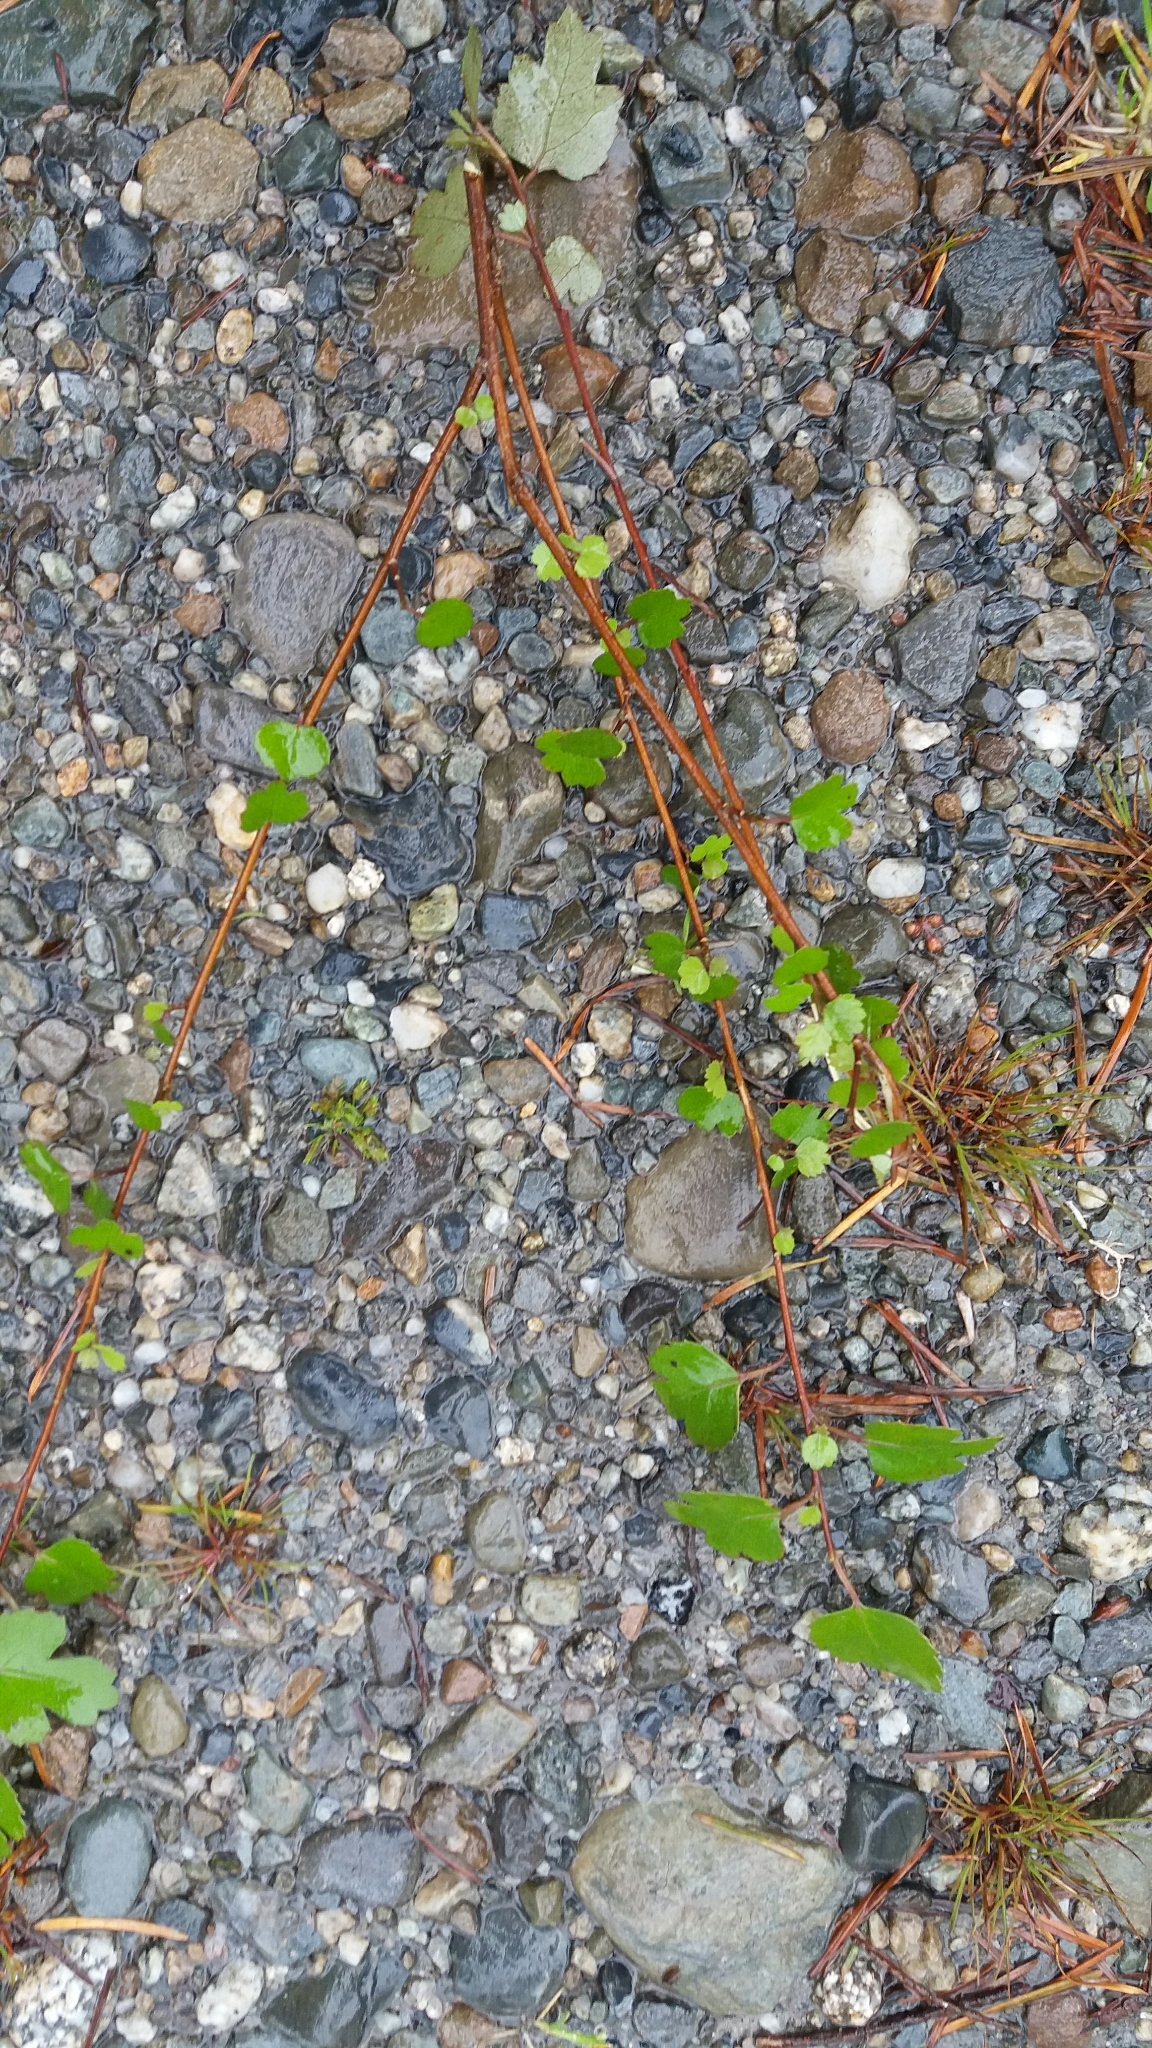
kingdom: Plantae
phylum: Tracheophyta
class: Magnoliopsida
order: Malvales
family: Malvaceae
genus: Hoheria
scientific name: Hoheria sexstylosa
